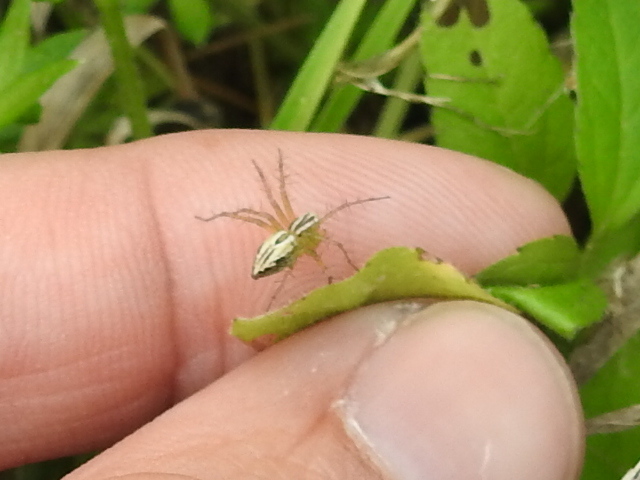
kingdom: Animalia
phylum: Arthropoda
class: Arachnida
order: Araneae
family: Oxyopidae
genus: Oxyopes
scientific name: Oxyopes salticus
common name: Lynx spiders
